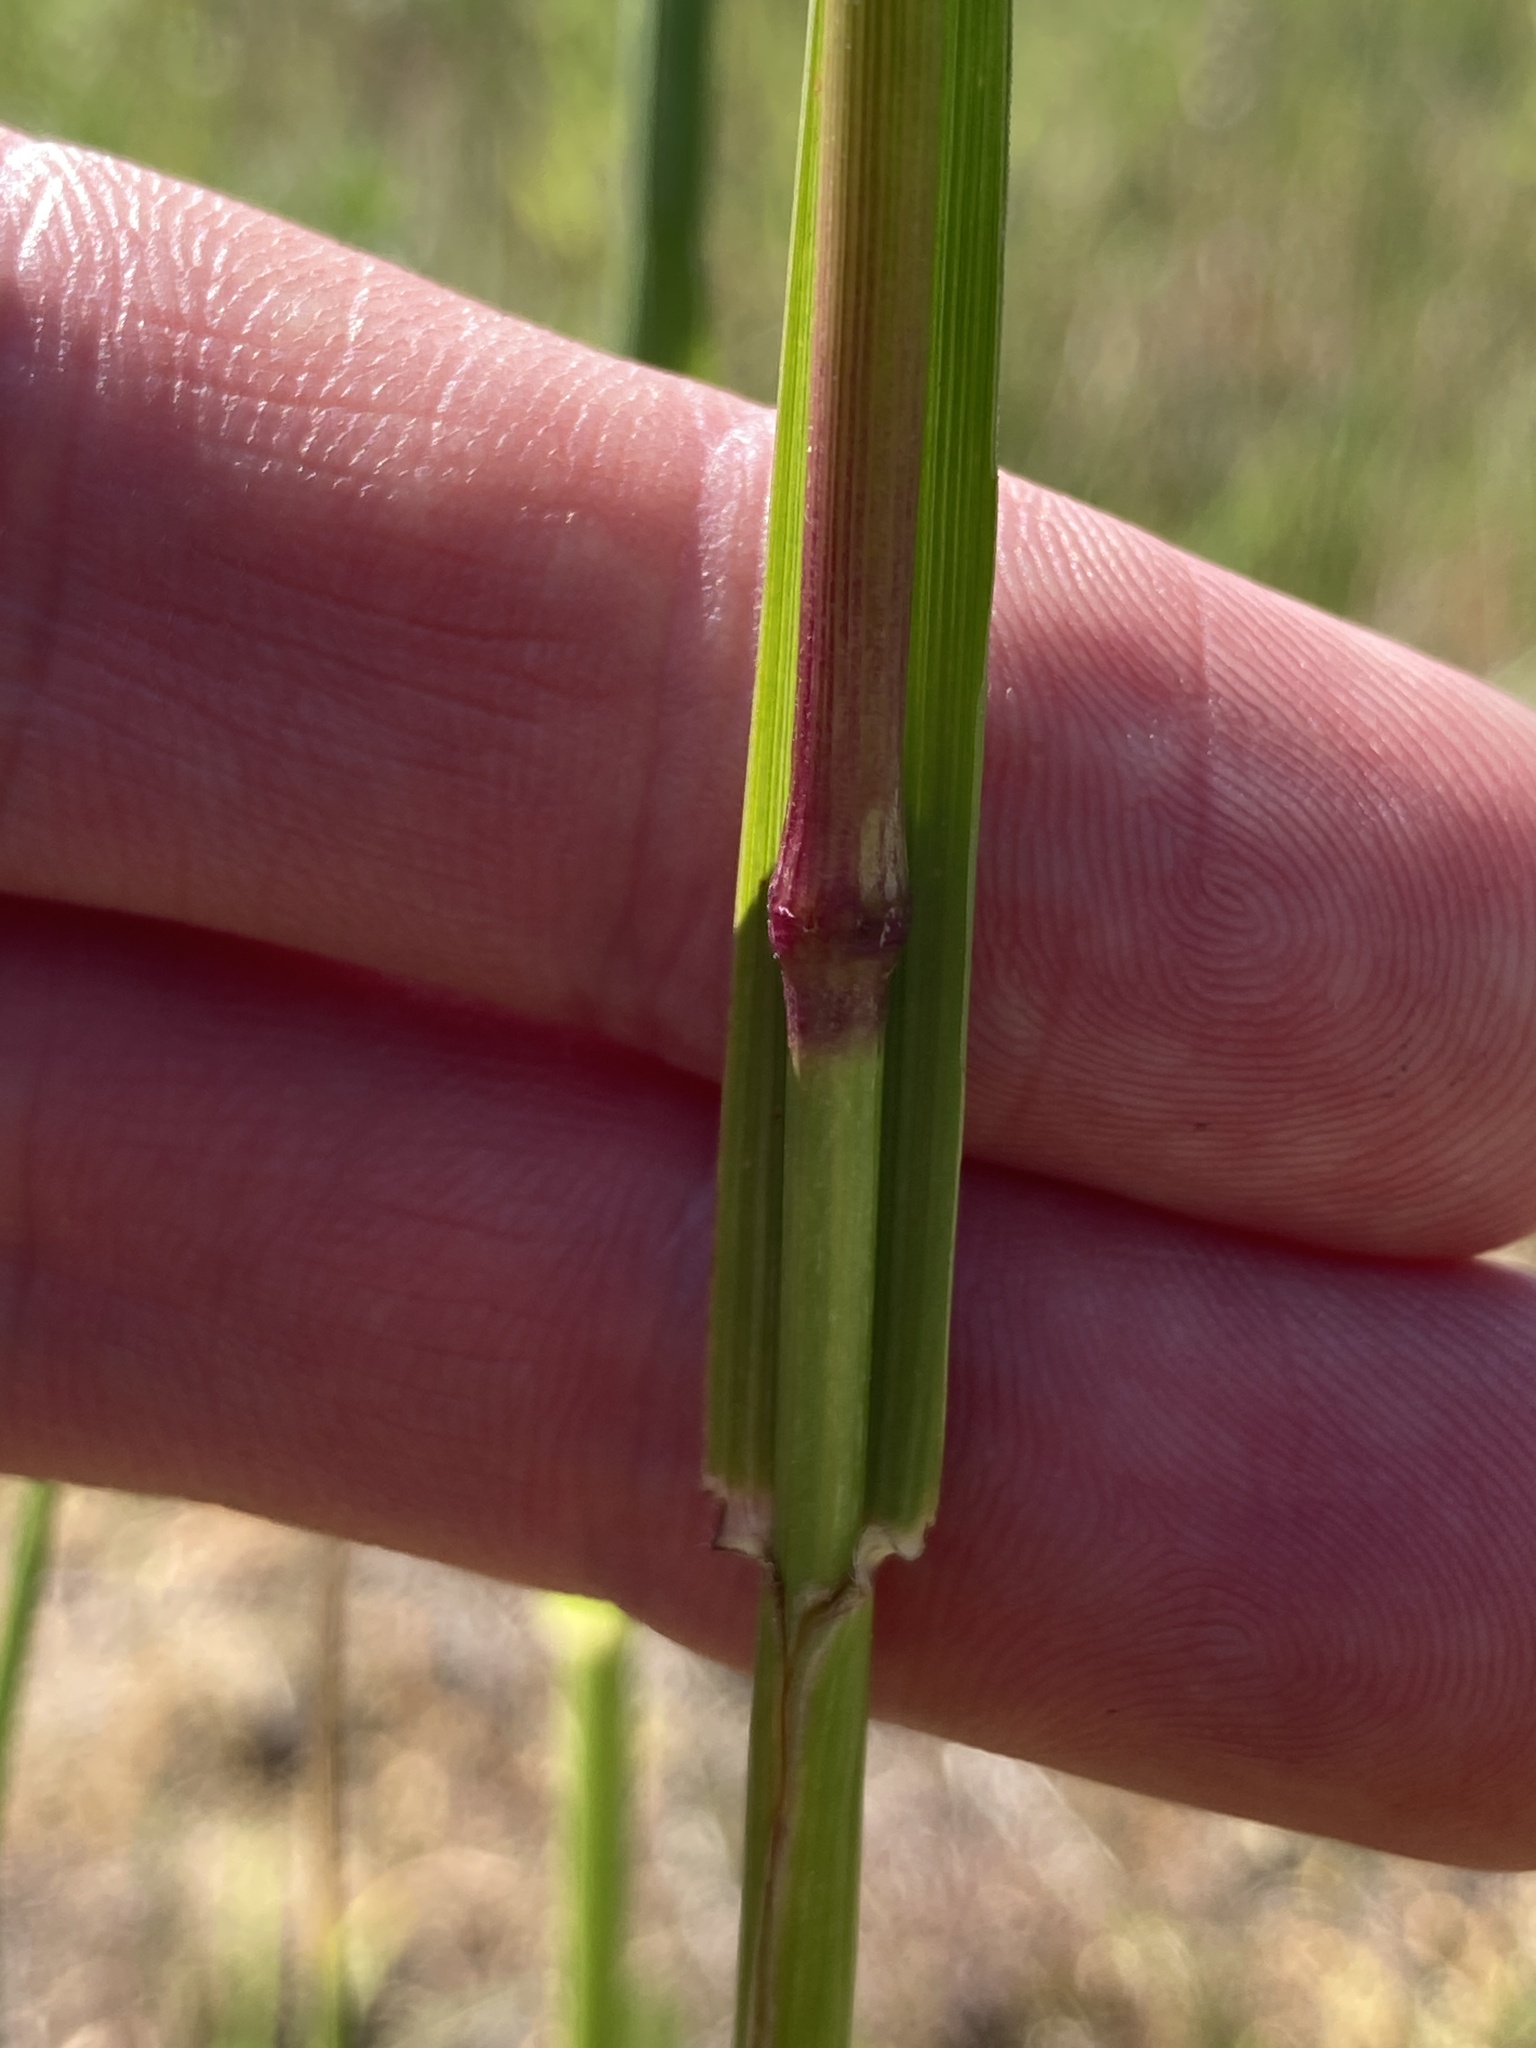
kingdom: Plantae
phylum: Tracheophyta
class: Liliopsida
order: Poales
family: Poaceae
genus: Lolium
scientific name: Lolium arundinaceum
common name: Reed fescue
